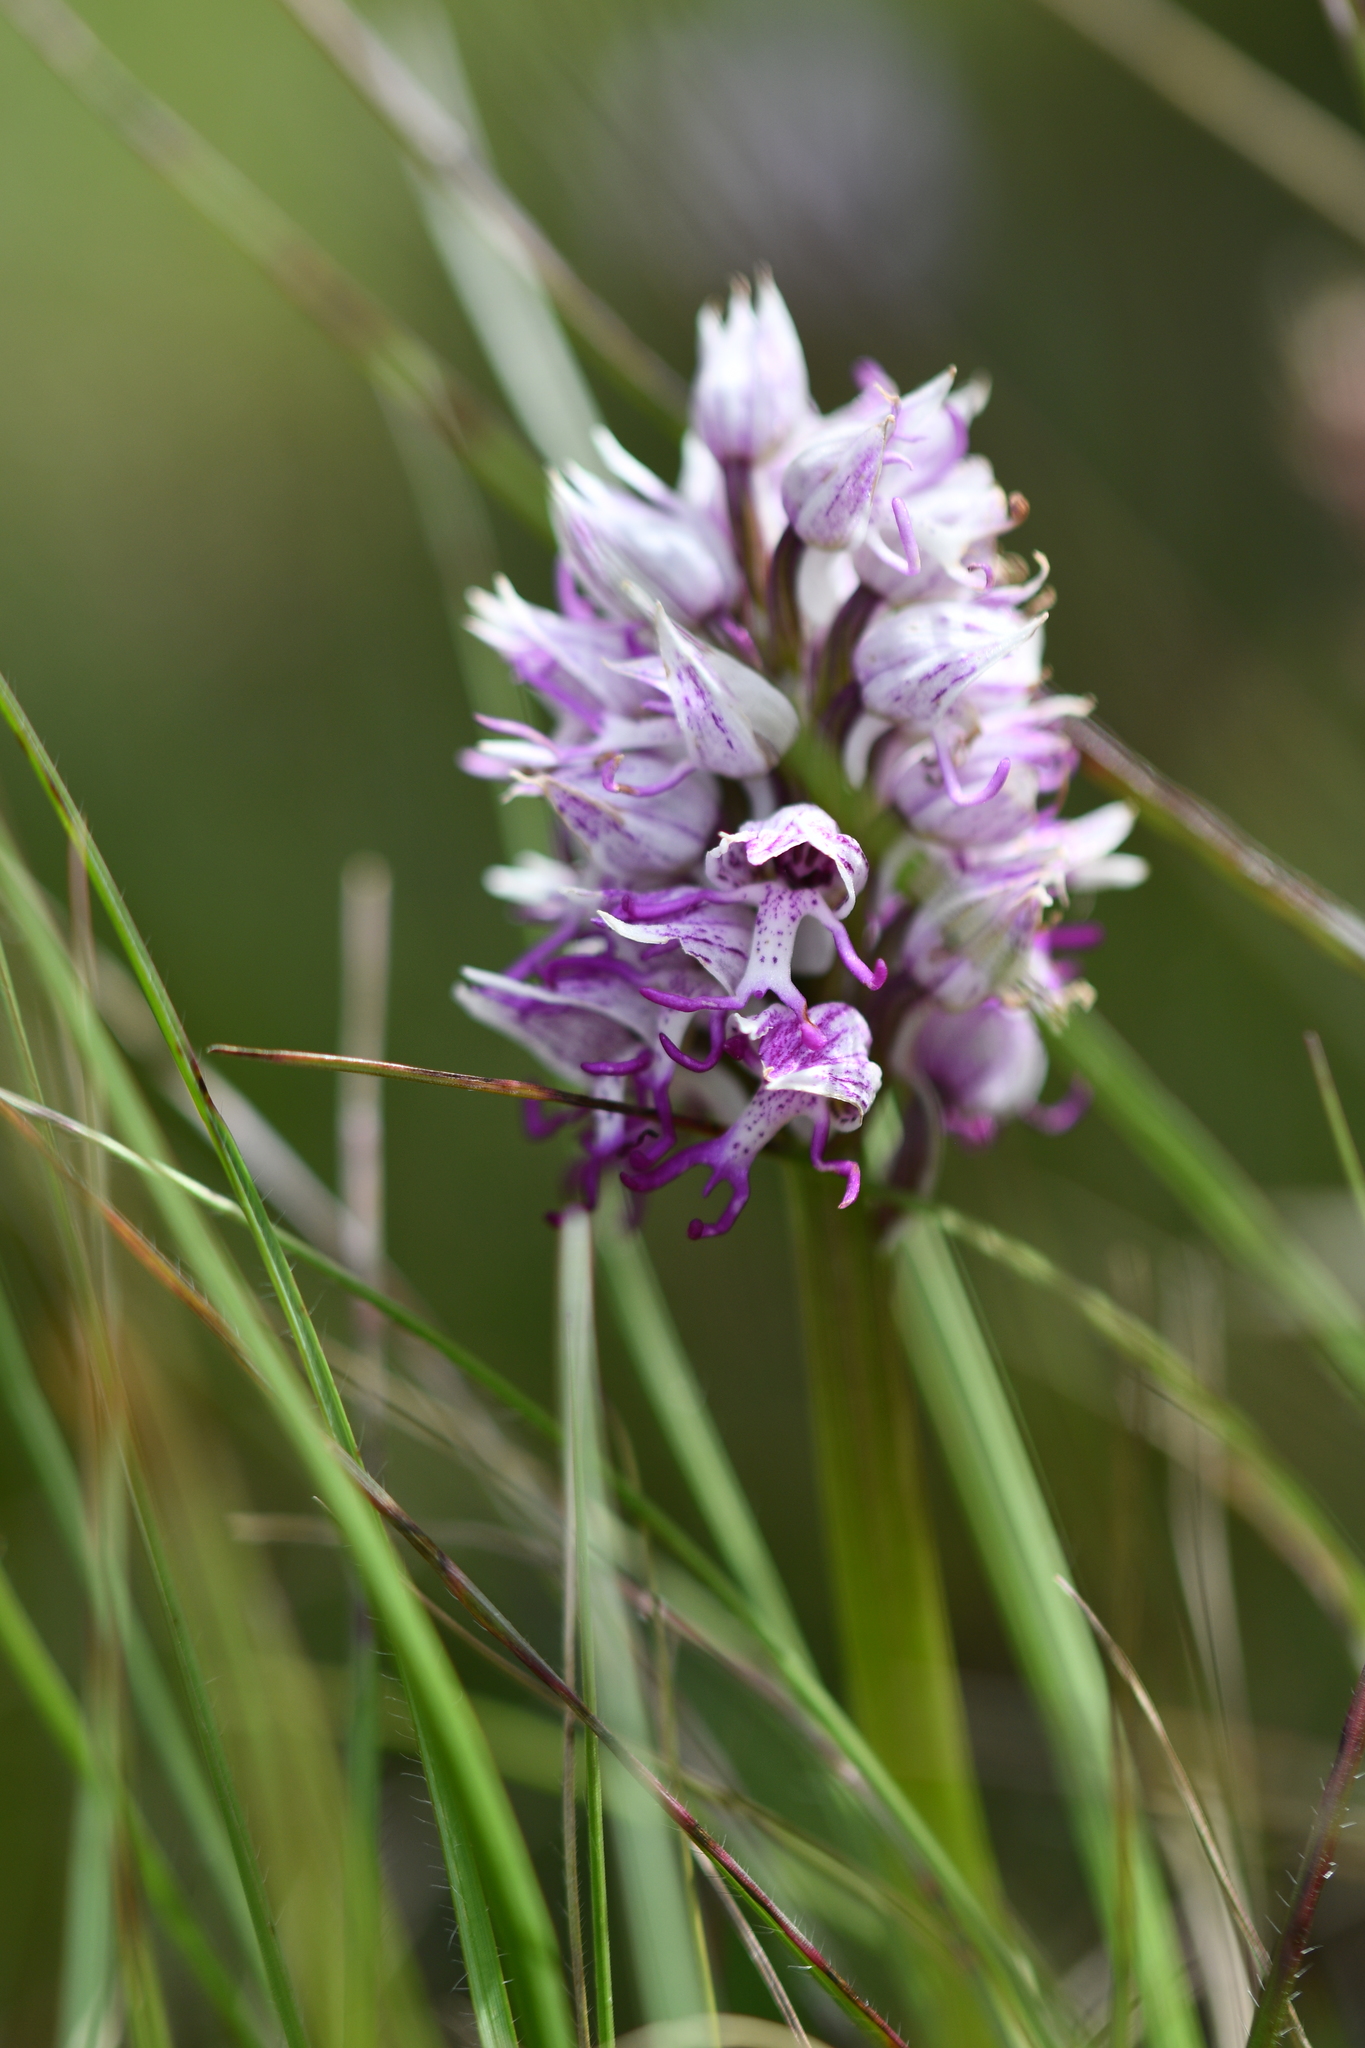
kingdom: Plantae
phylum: Tracheophyta
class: Liliopsida
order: Asparagales
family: Orchidaceae
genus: Orchis
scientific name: Orchis simia
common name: Monkey orchid
